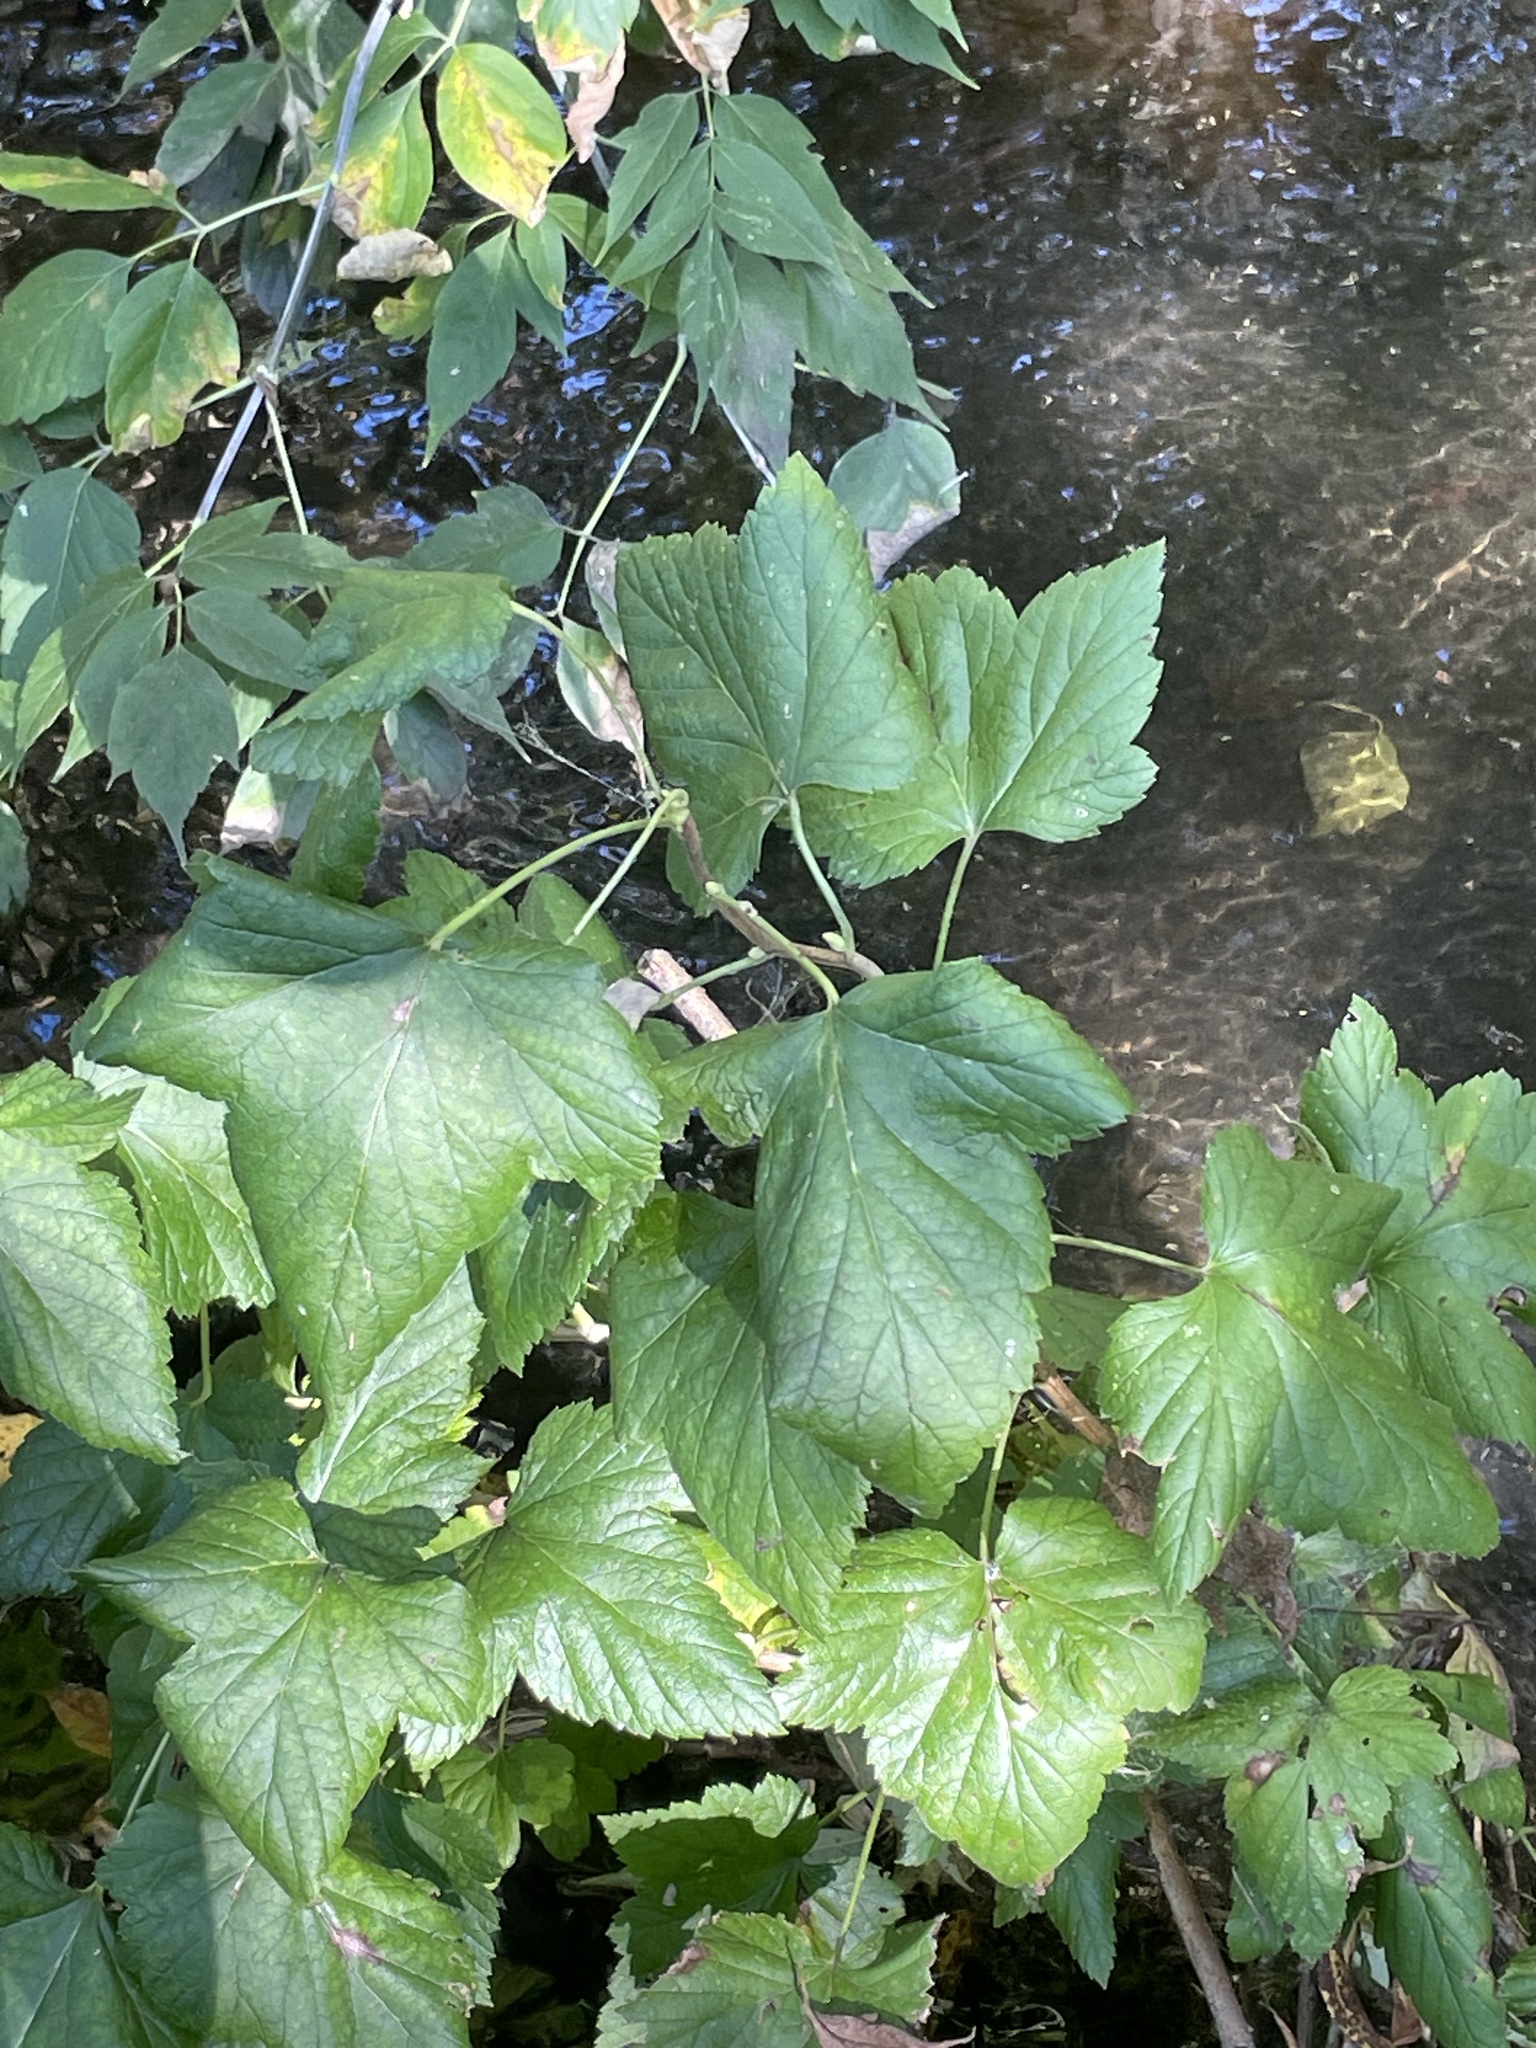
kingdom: Plantae
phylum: Tracheophyta
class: Magnoliopsida
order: Saxifragales
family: Grossulariaceae
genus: Ribes
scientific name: Ribes nigrum
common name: Black currant
